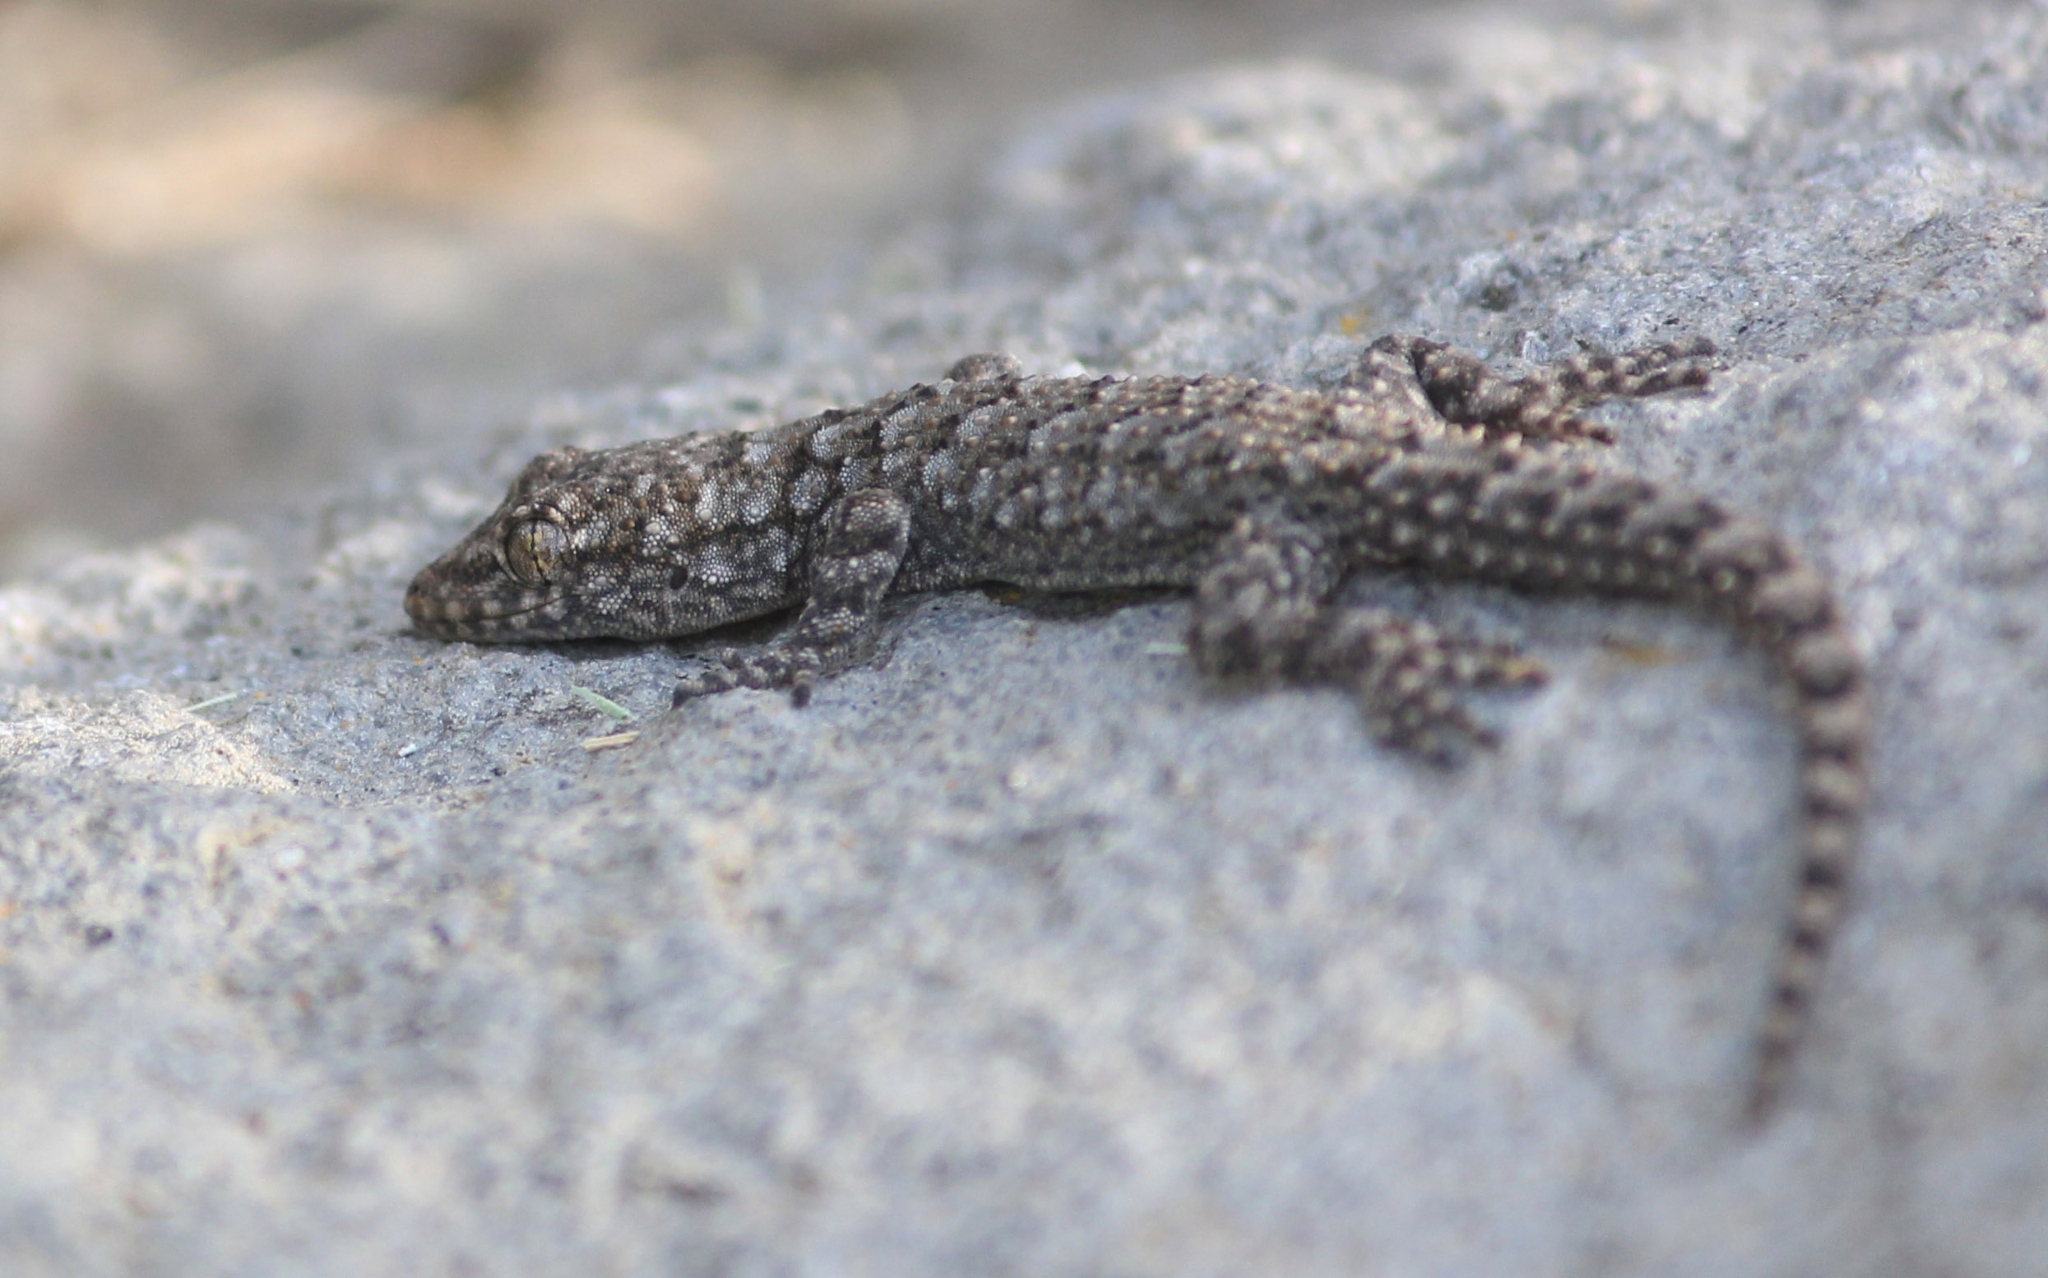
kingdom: Animalia
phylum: Chordata
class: Squamata
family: Gekkonidae
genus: Mediodactylus
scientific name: Mediodactylus kotschyi
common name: Kotschy's gecko
